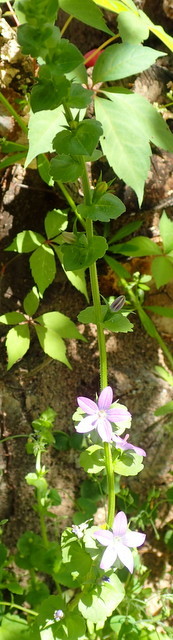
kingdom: Plantae
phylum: Tracheophyta
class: Magnoliopsida
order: Asterales
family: Campanulaceae
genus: Triodanis
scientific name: Triodanis perfoliata
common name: Clasping venus' looking-glass
